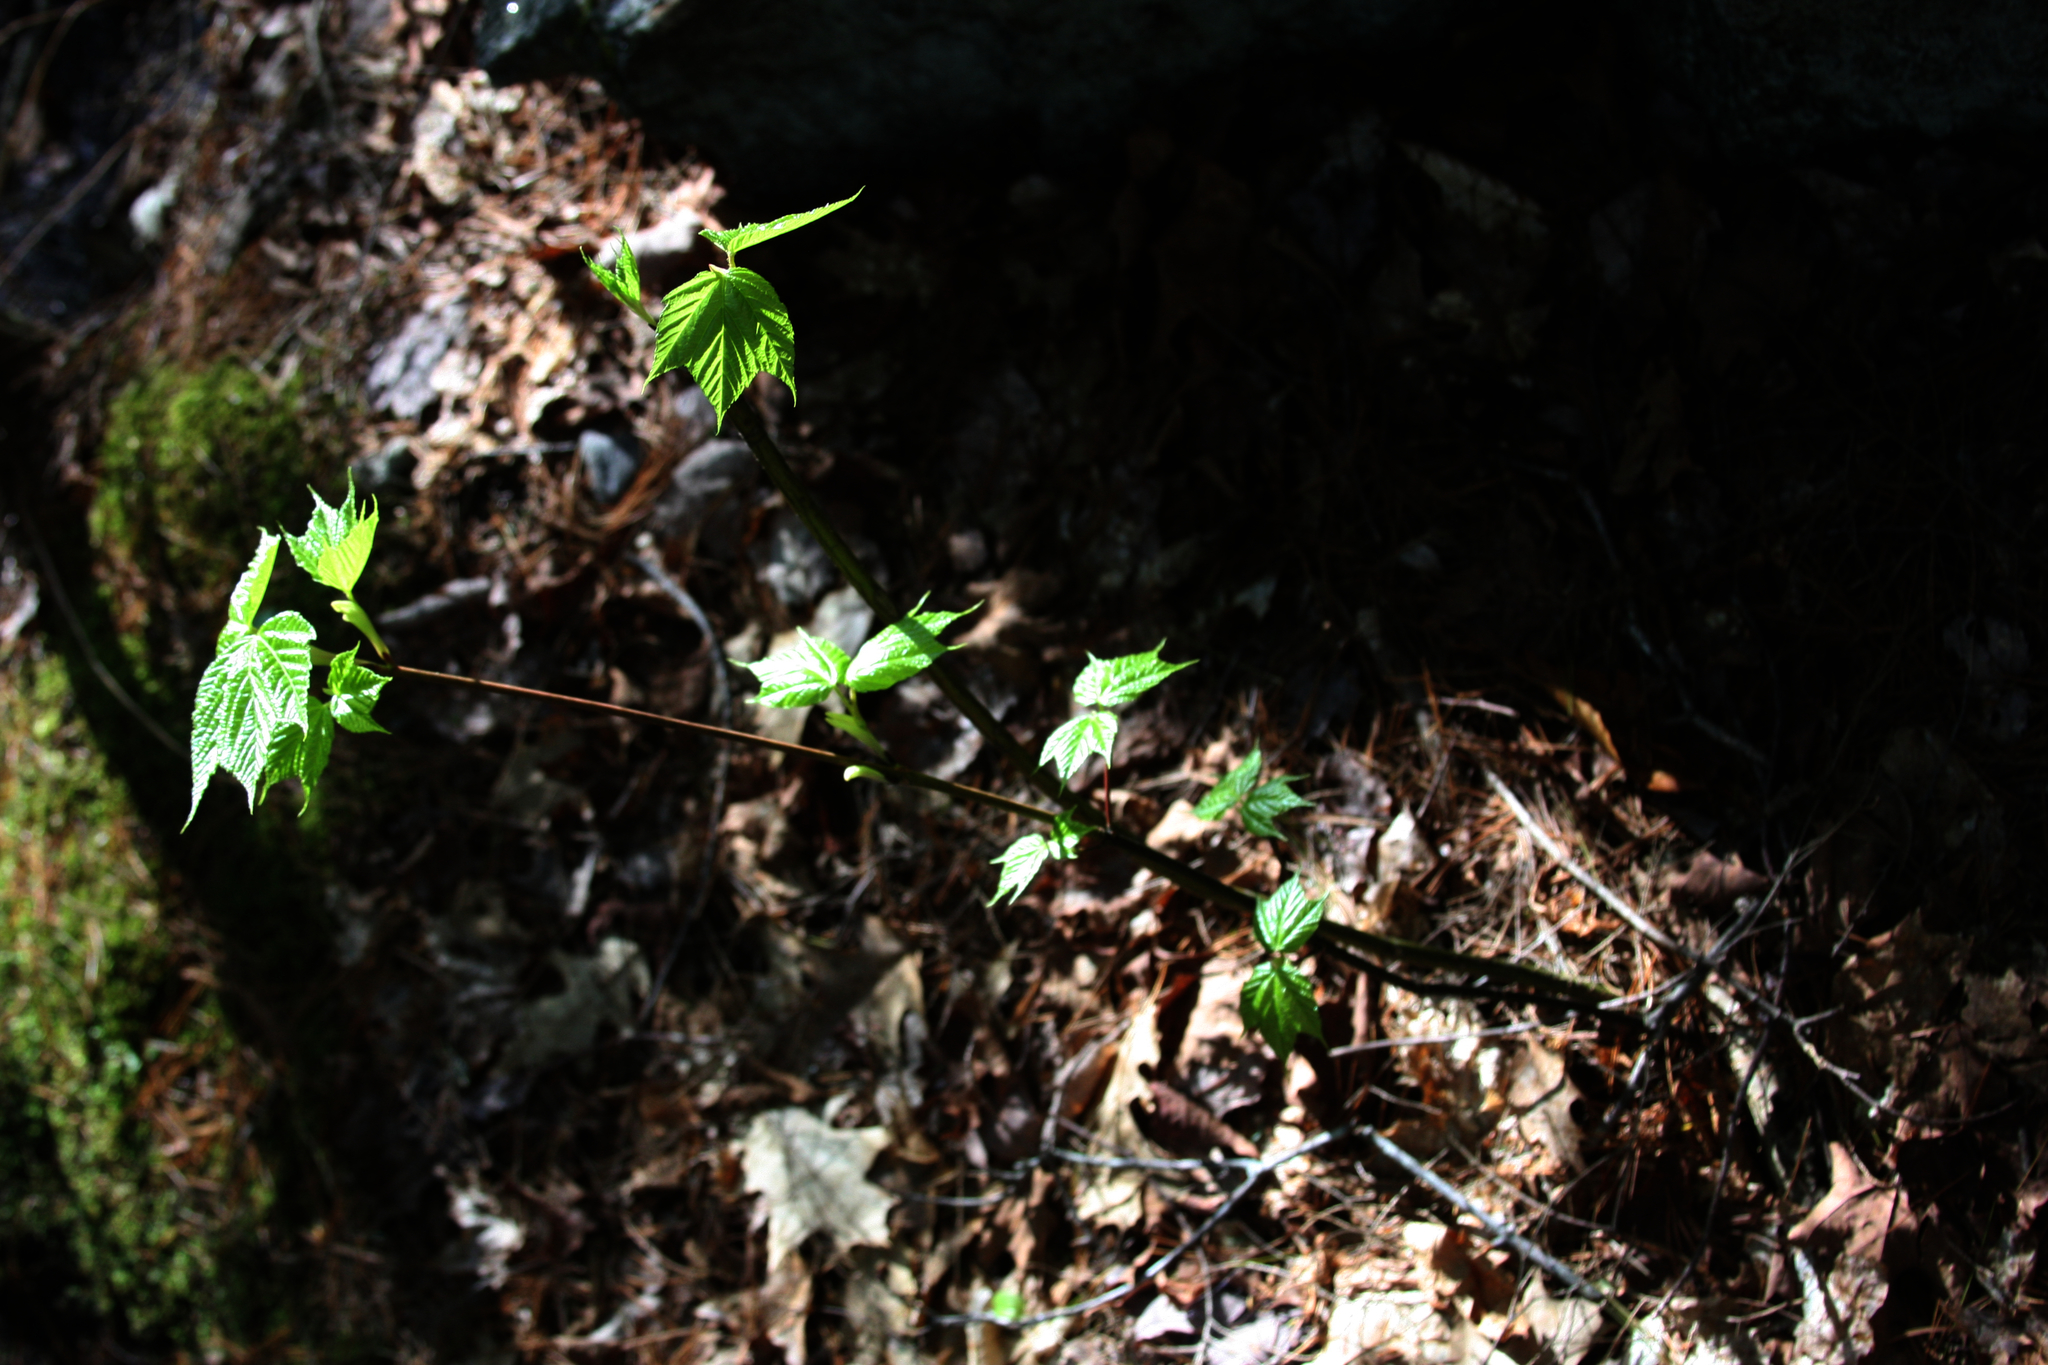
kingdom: Plantae
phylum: Tracheophyta
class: Magnoliopsida
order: Sapindales
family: Sapindaceae
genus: Acer
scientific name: Acer pensylvanicum
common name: Moosewood
